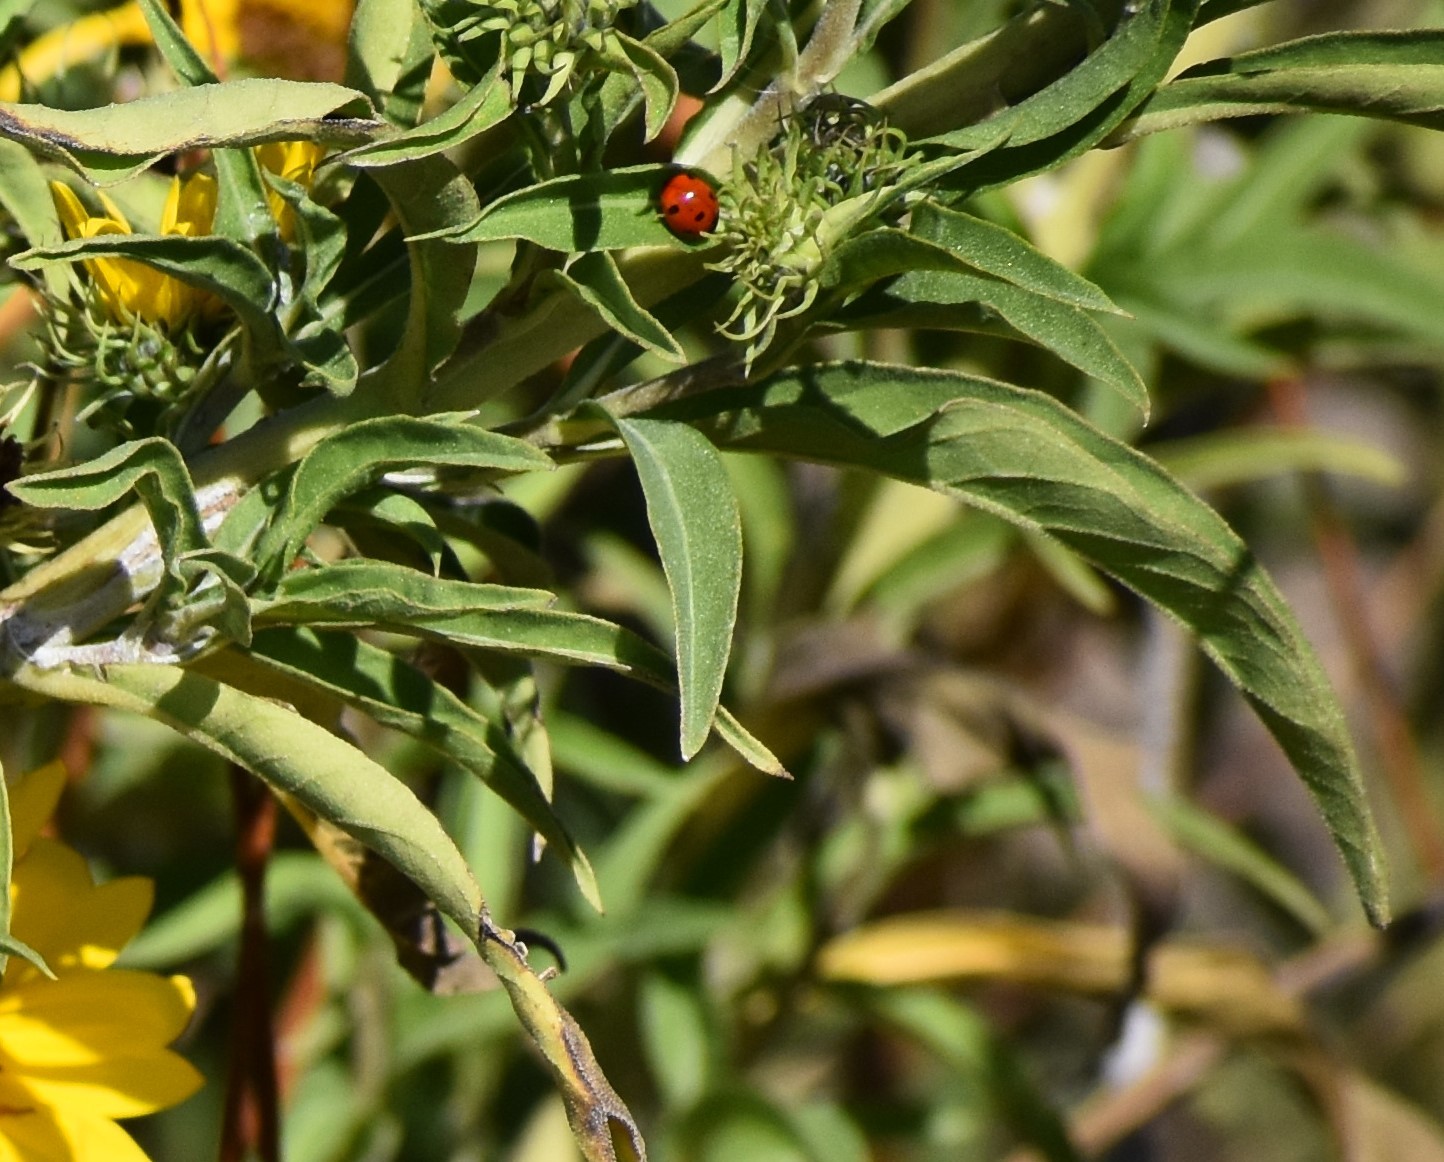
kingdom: Animalia
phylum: Arthropoda
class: Insecta
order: Coleoptera
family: Coccinellidae
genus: Coccinella
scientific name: Coccinella septempunctata
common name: Sevenspotted lady beetle
